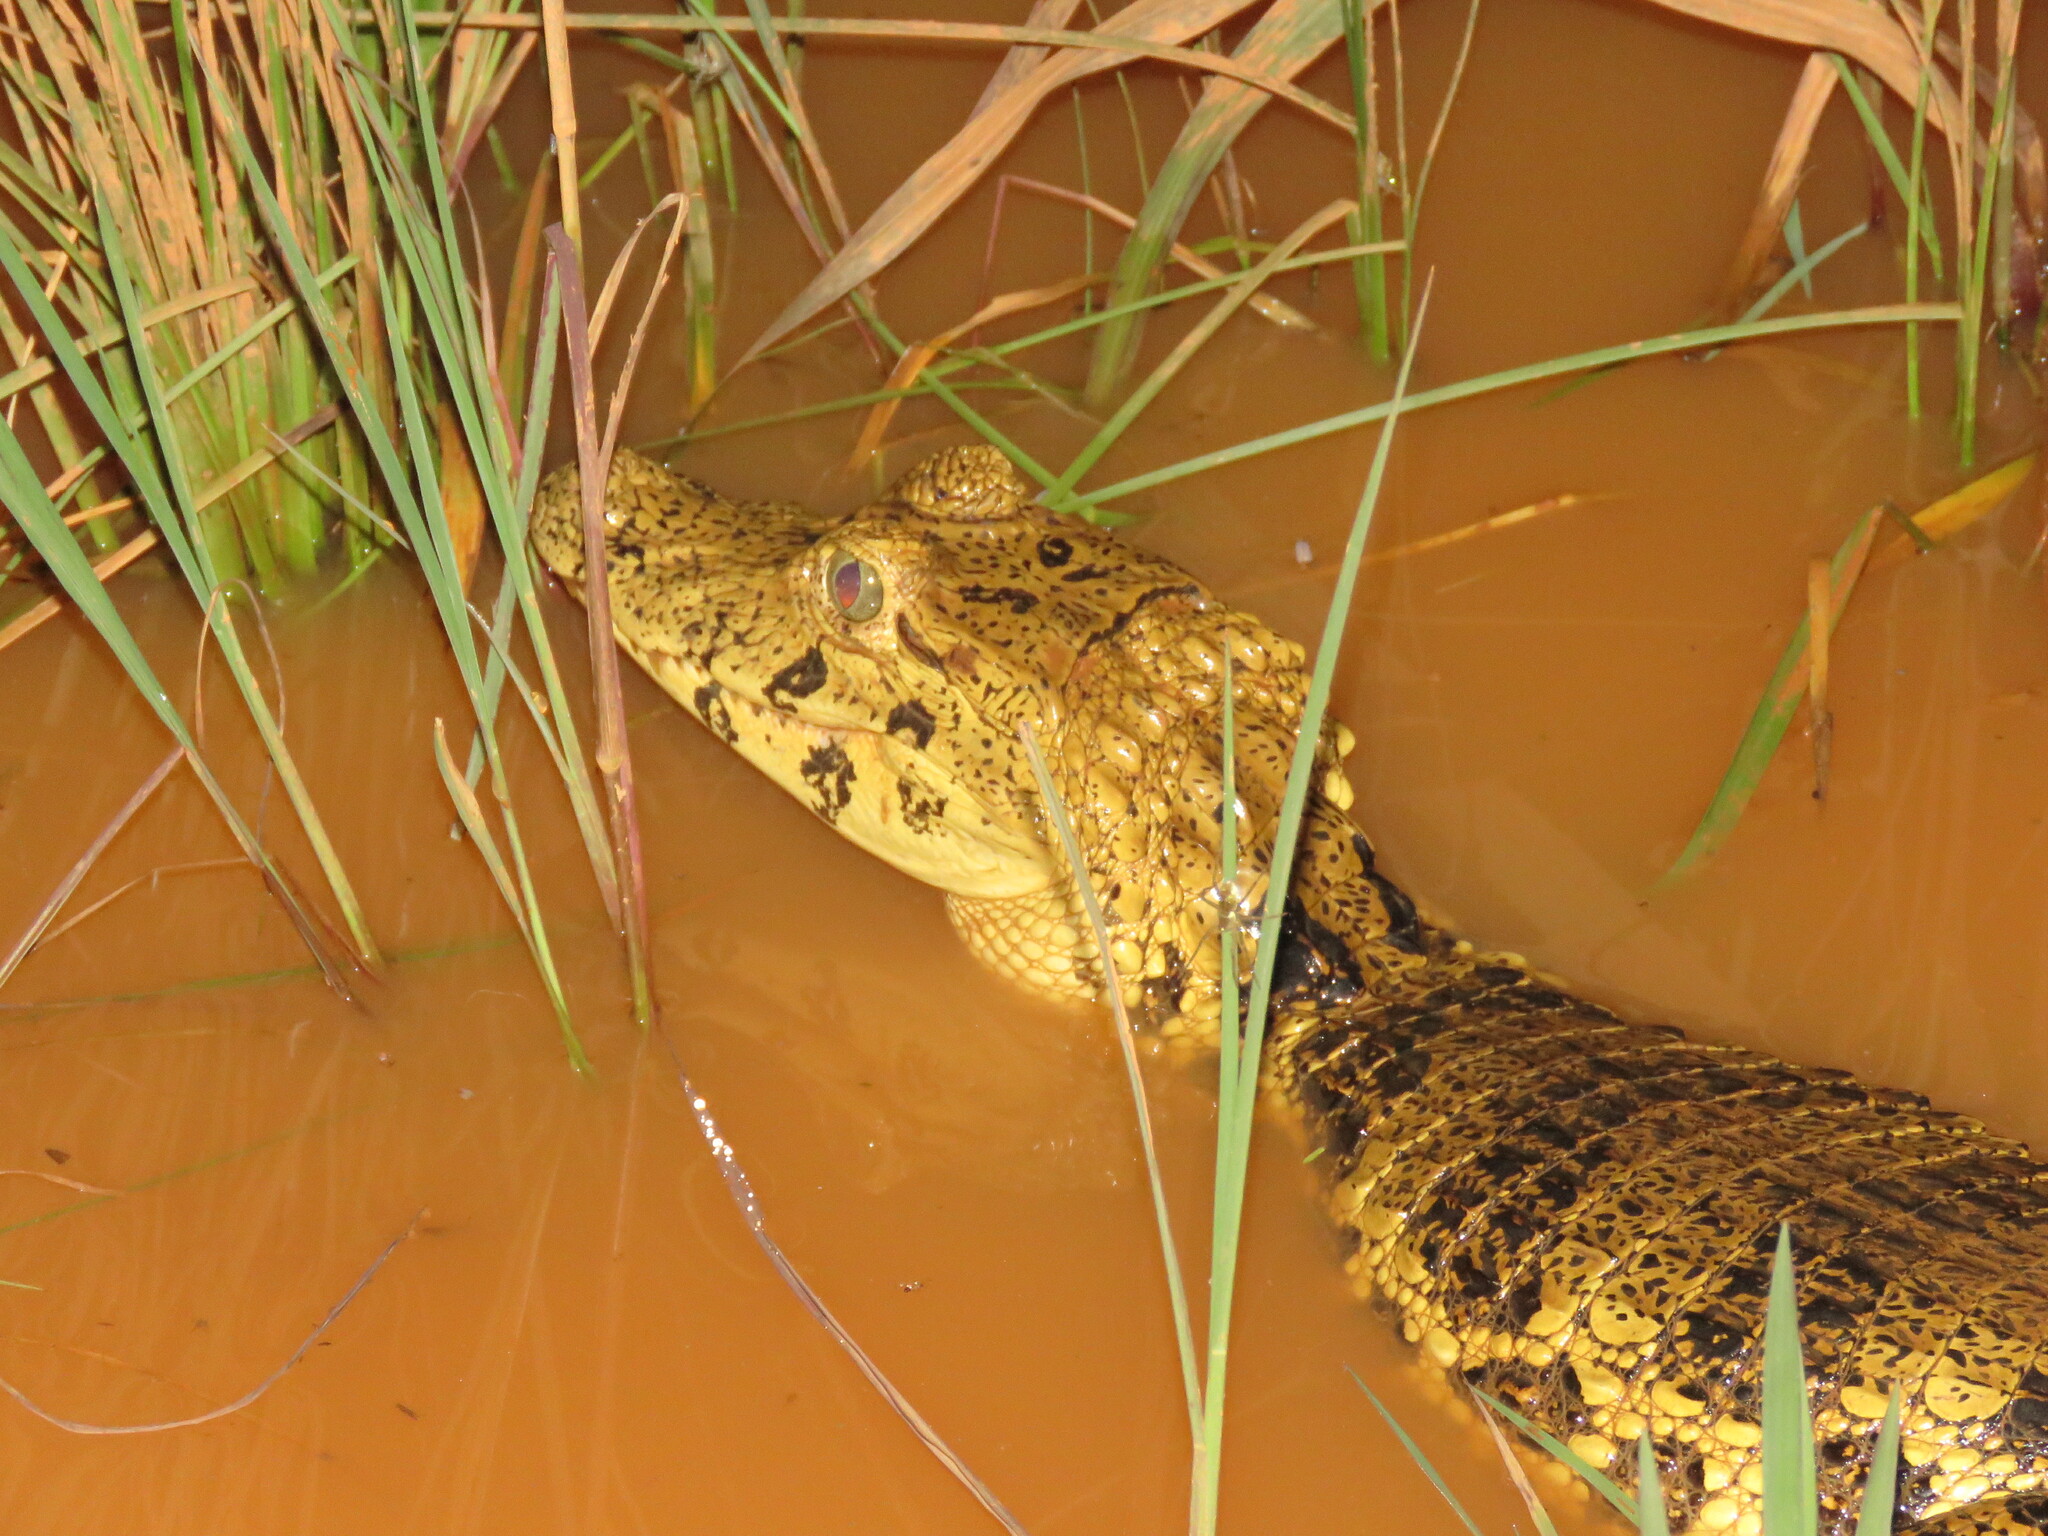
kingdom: Animalia
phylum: Chordata
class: Crocodylia
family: Alligatoridae
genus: Caiman
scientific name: Caiman yacare
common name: Yacare caiman
